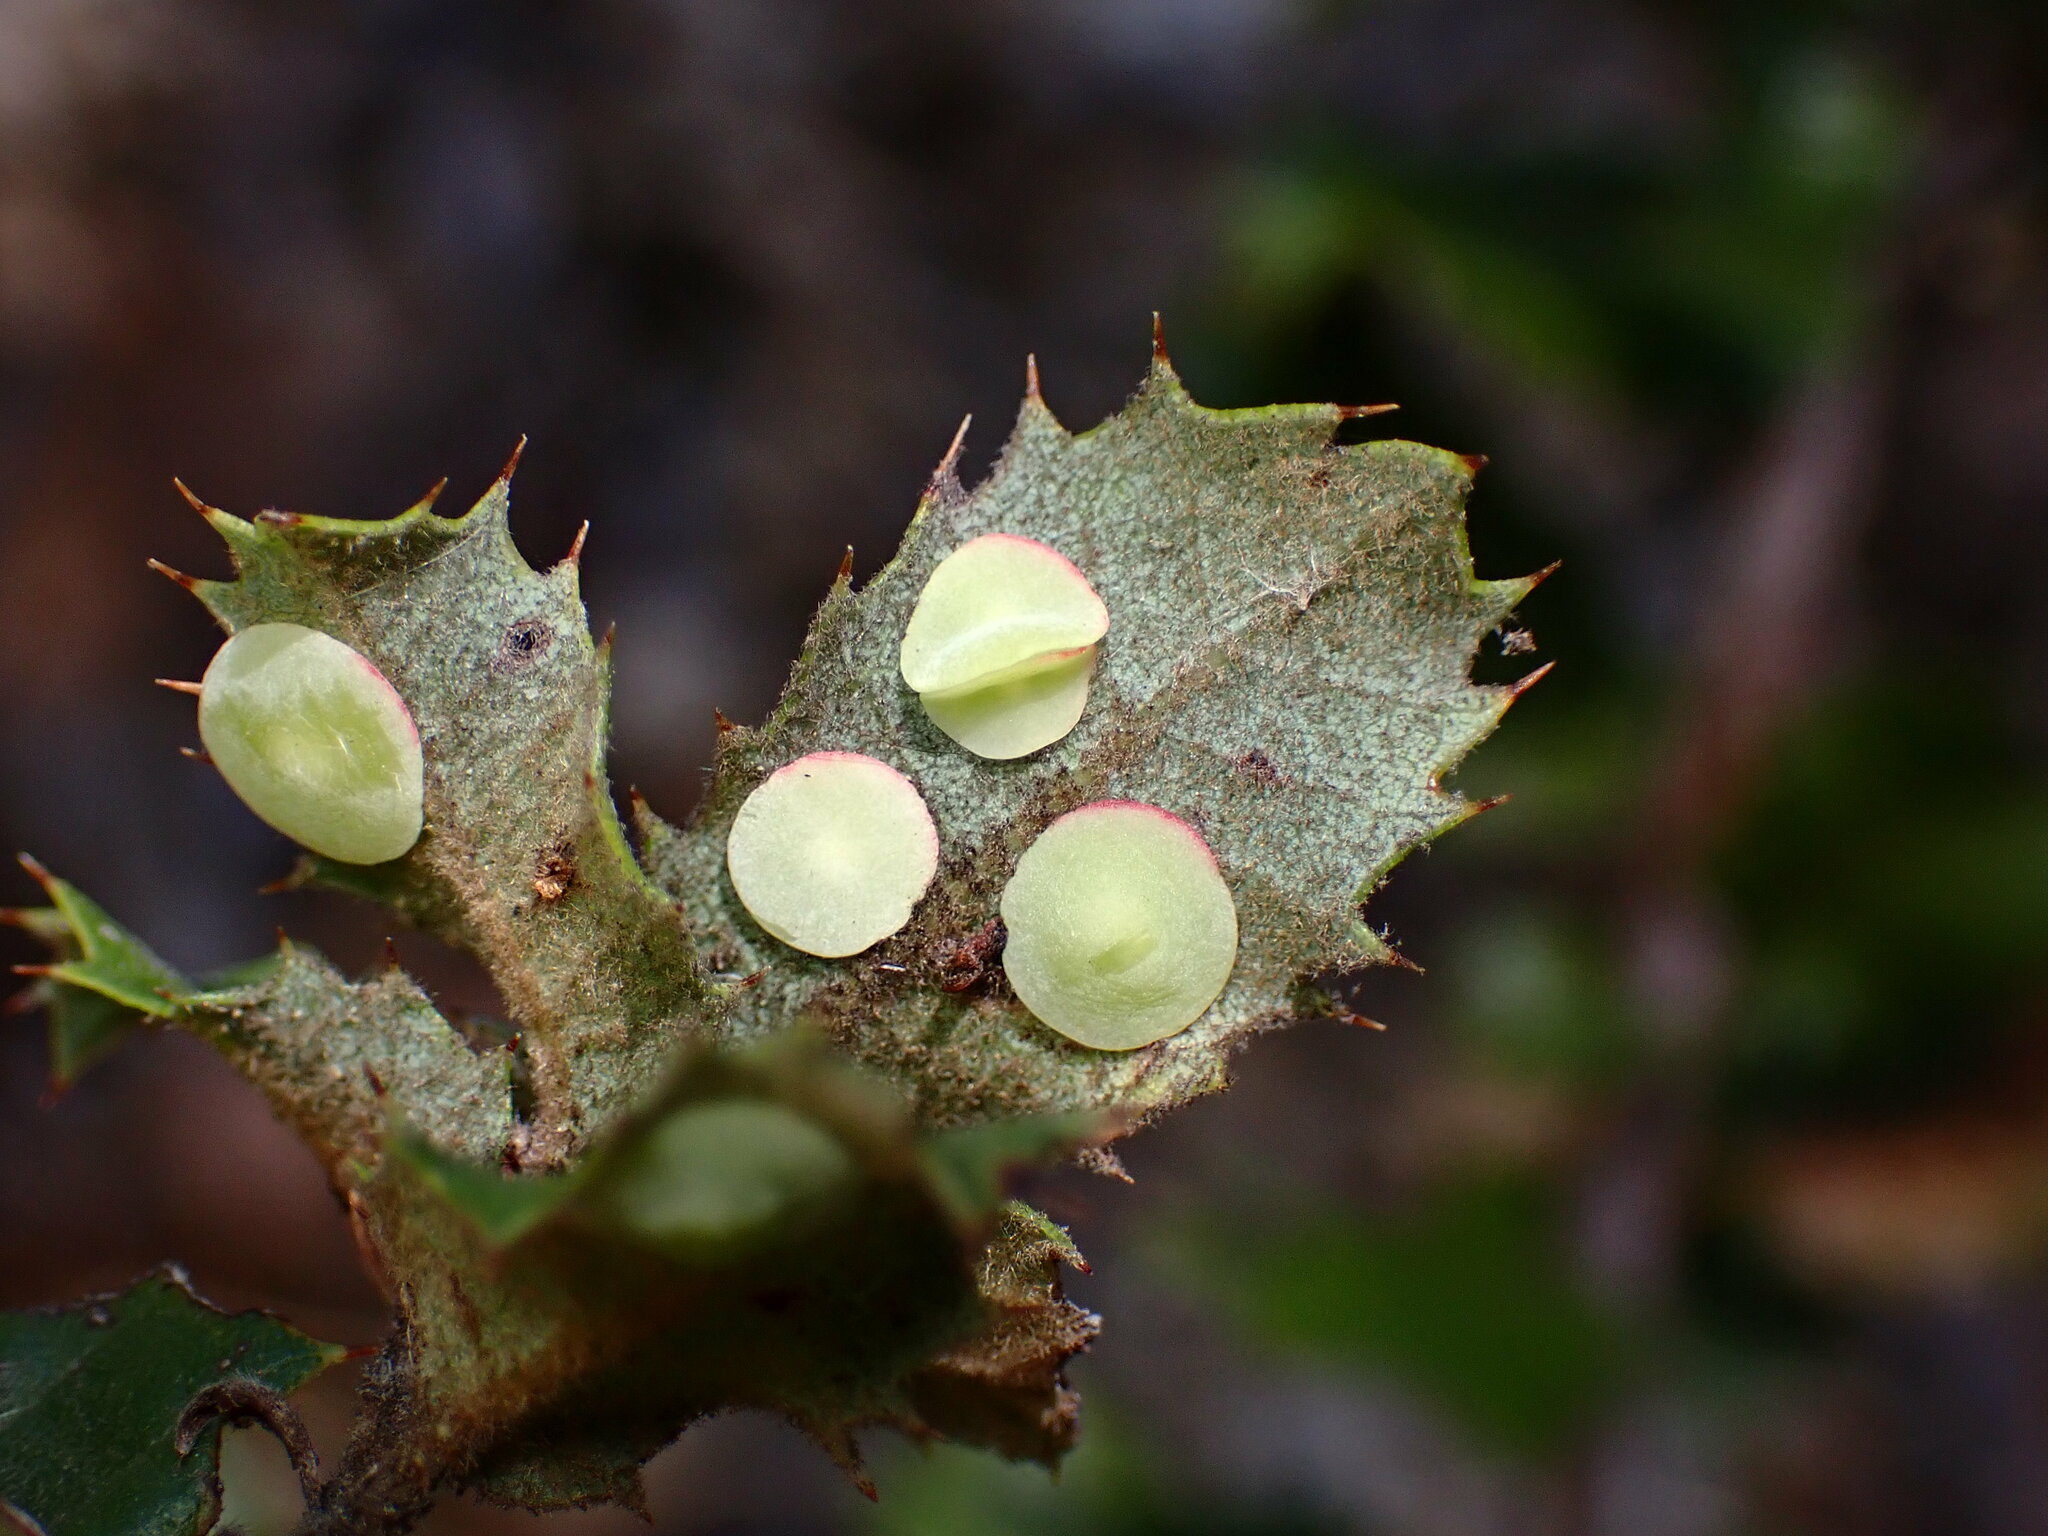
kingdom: Animalia
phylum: Arthropoda
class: Insecta
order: Hymenoptera
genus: Paracraspis
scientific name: Paracraspis
